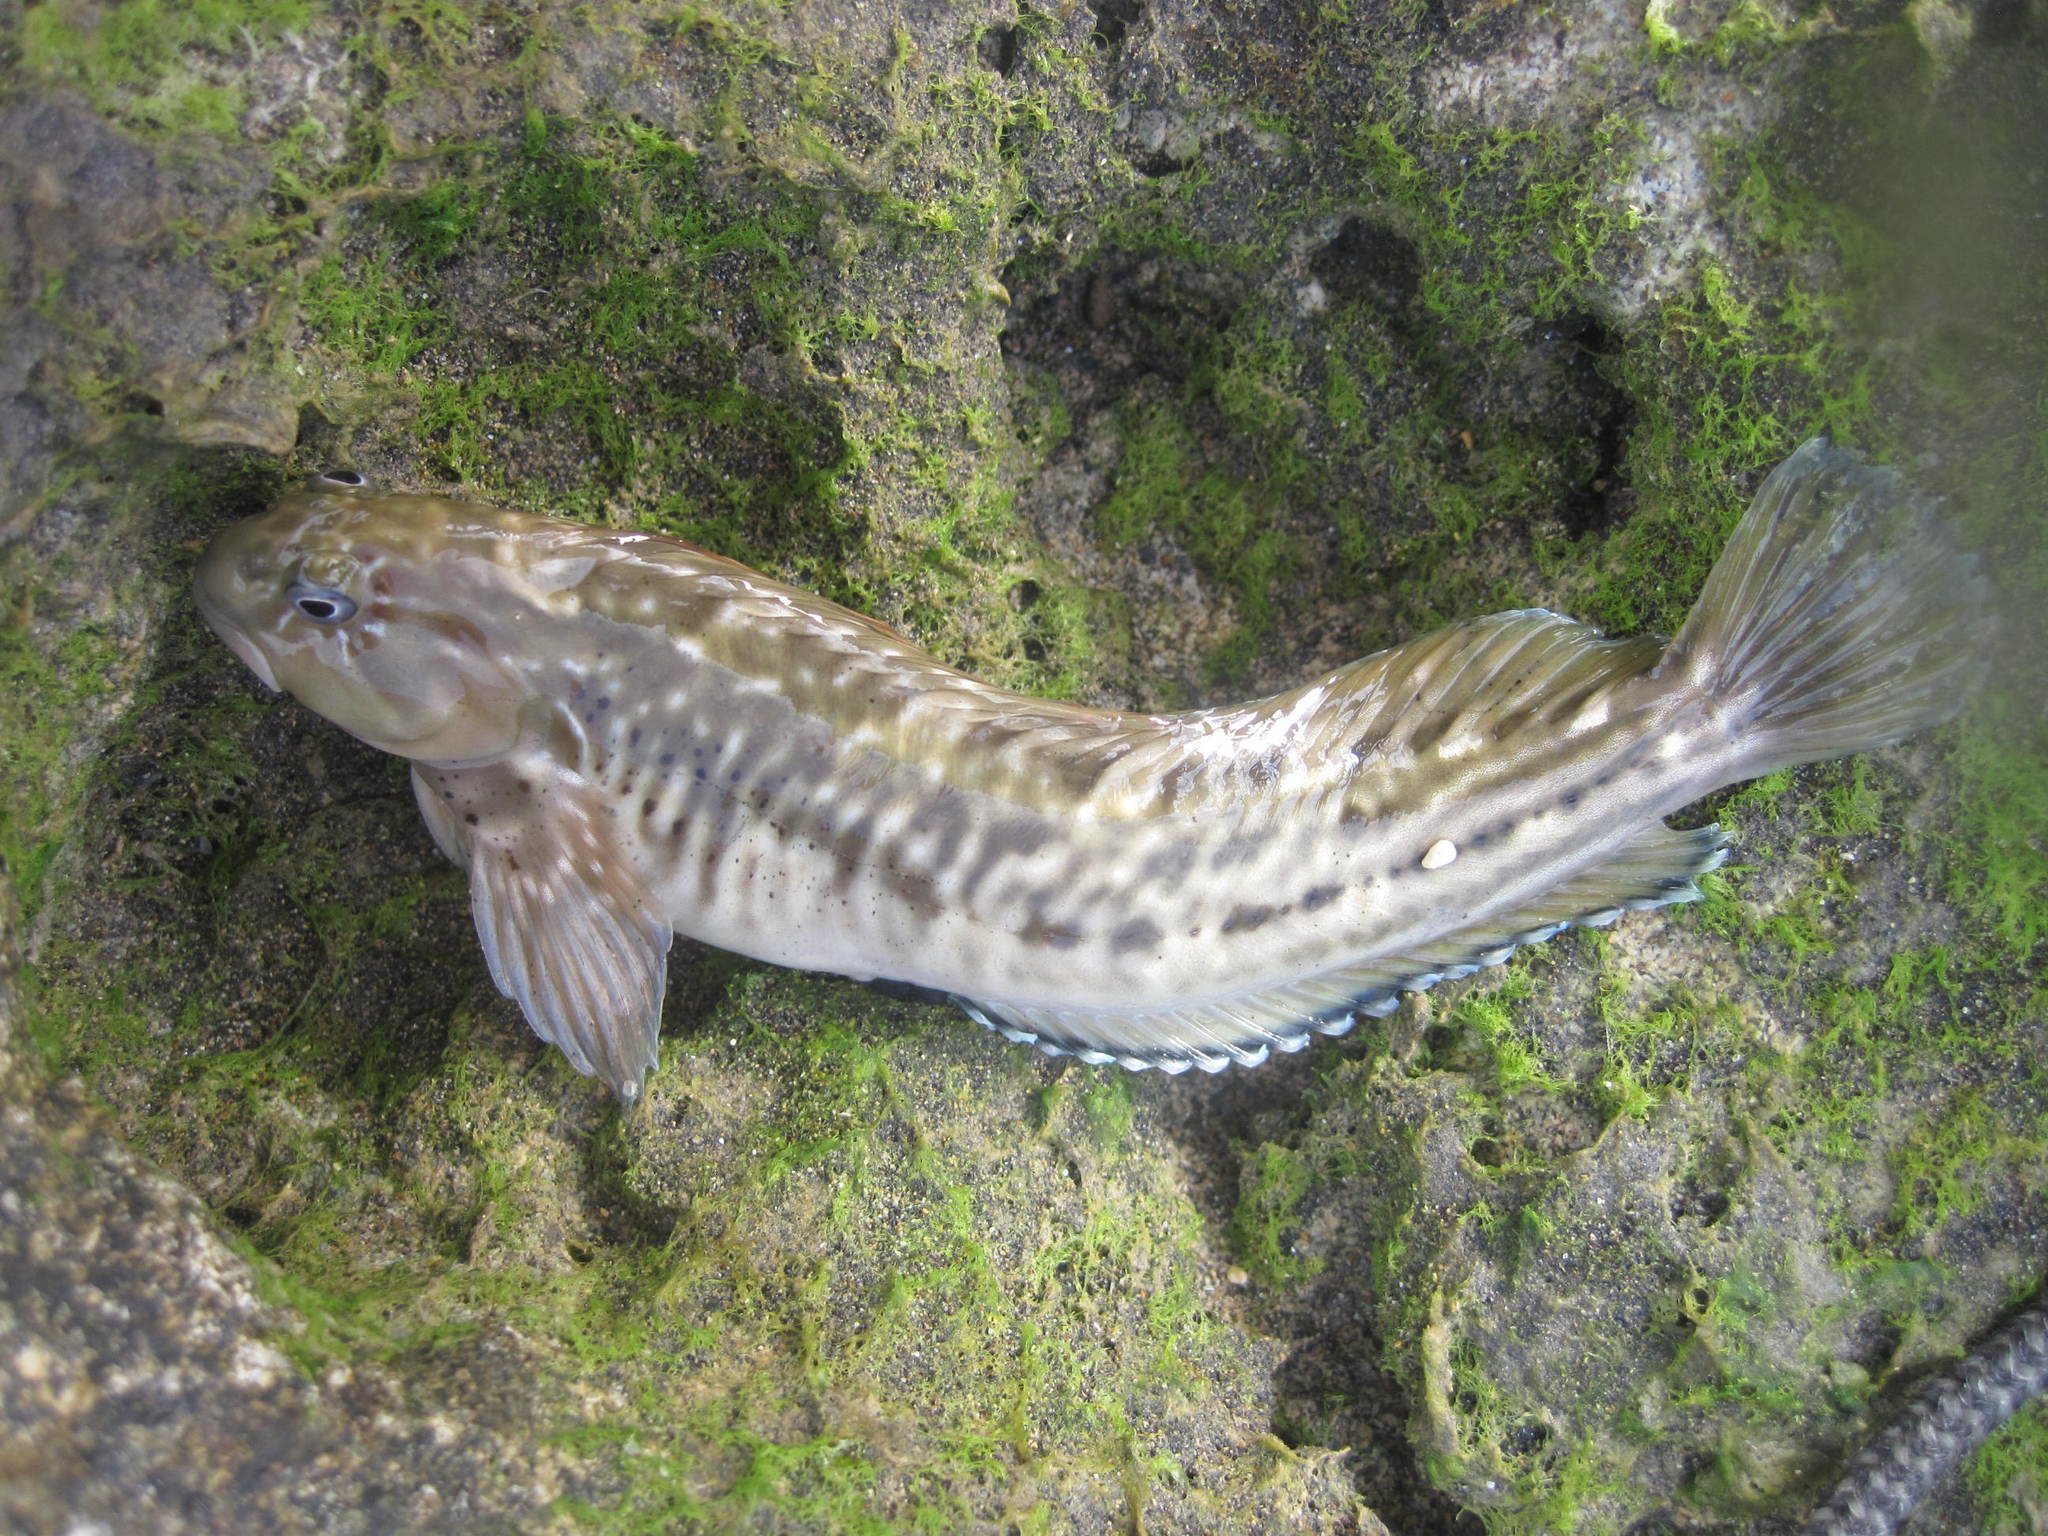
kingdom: Animalia
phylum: Chordata
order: Perciformes
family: Blenniidae
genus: Parablennius
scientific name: Parablennius parvicornis
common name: Rock-pool blenny
